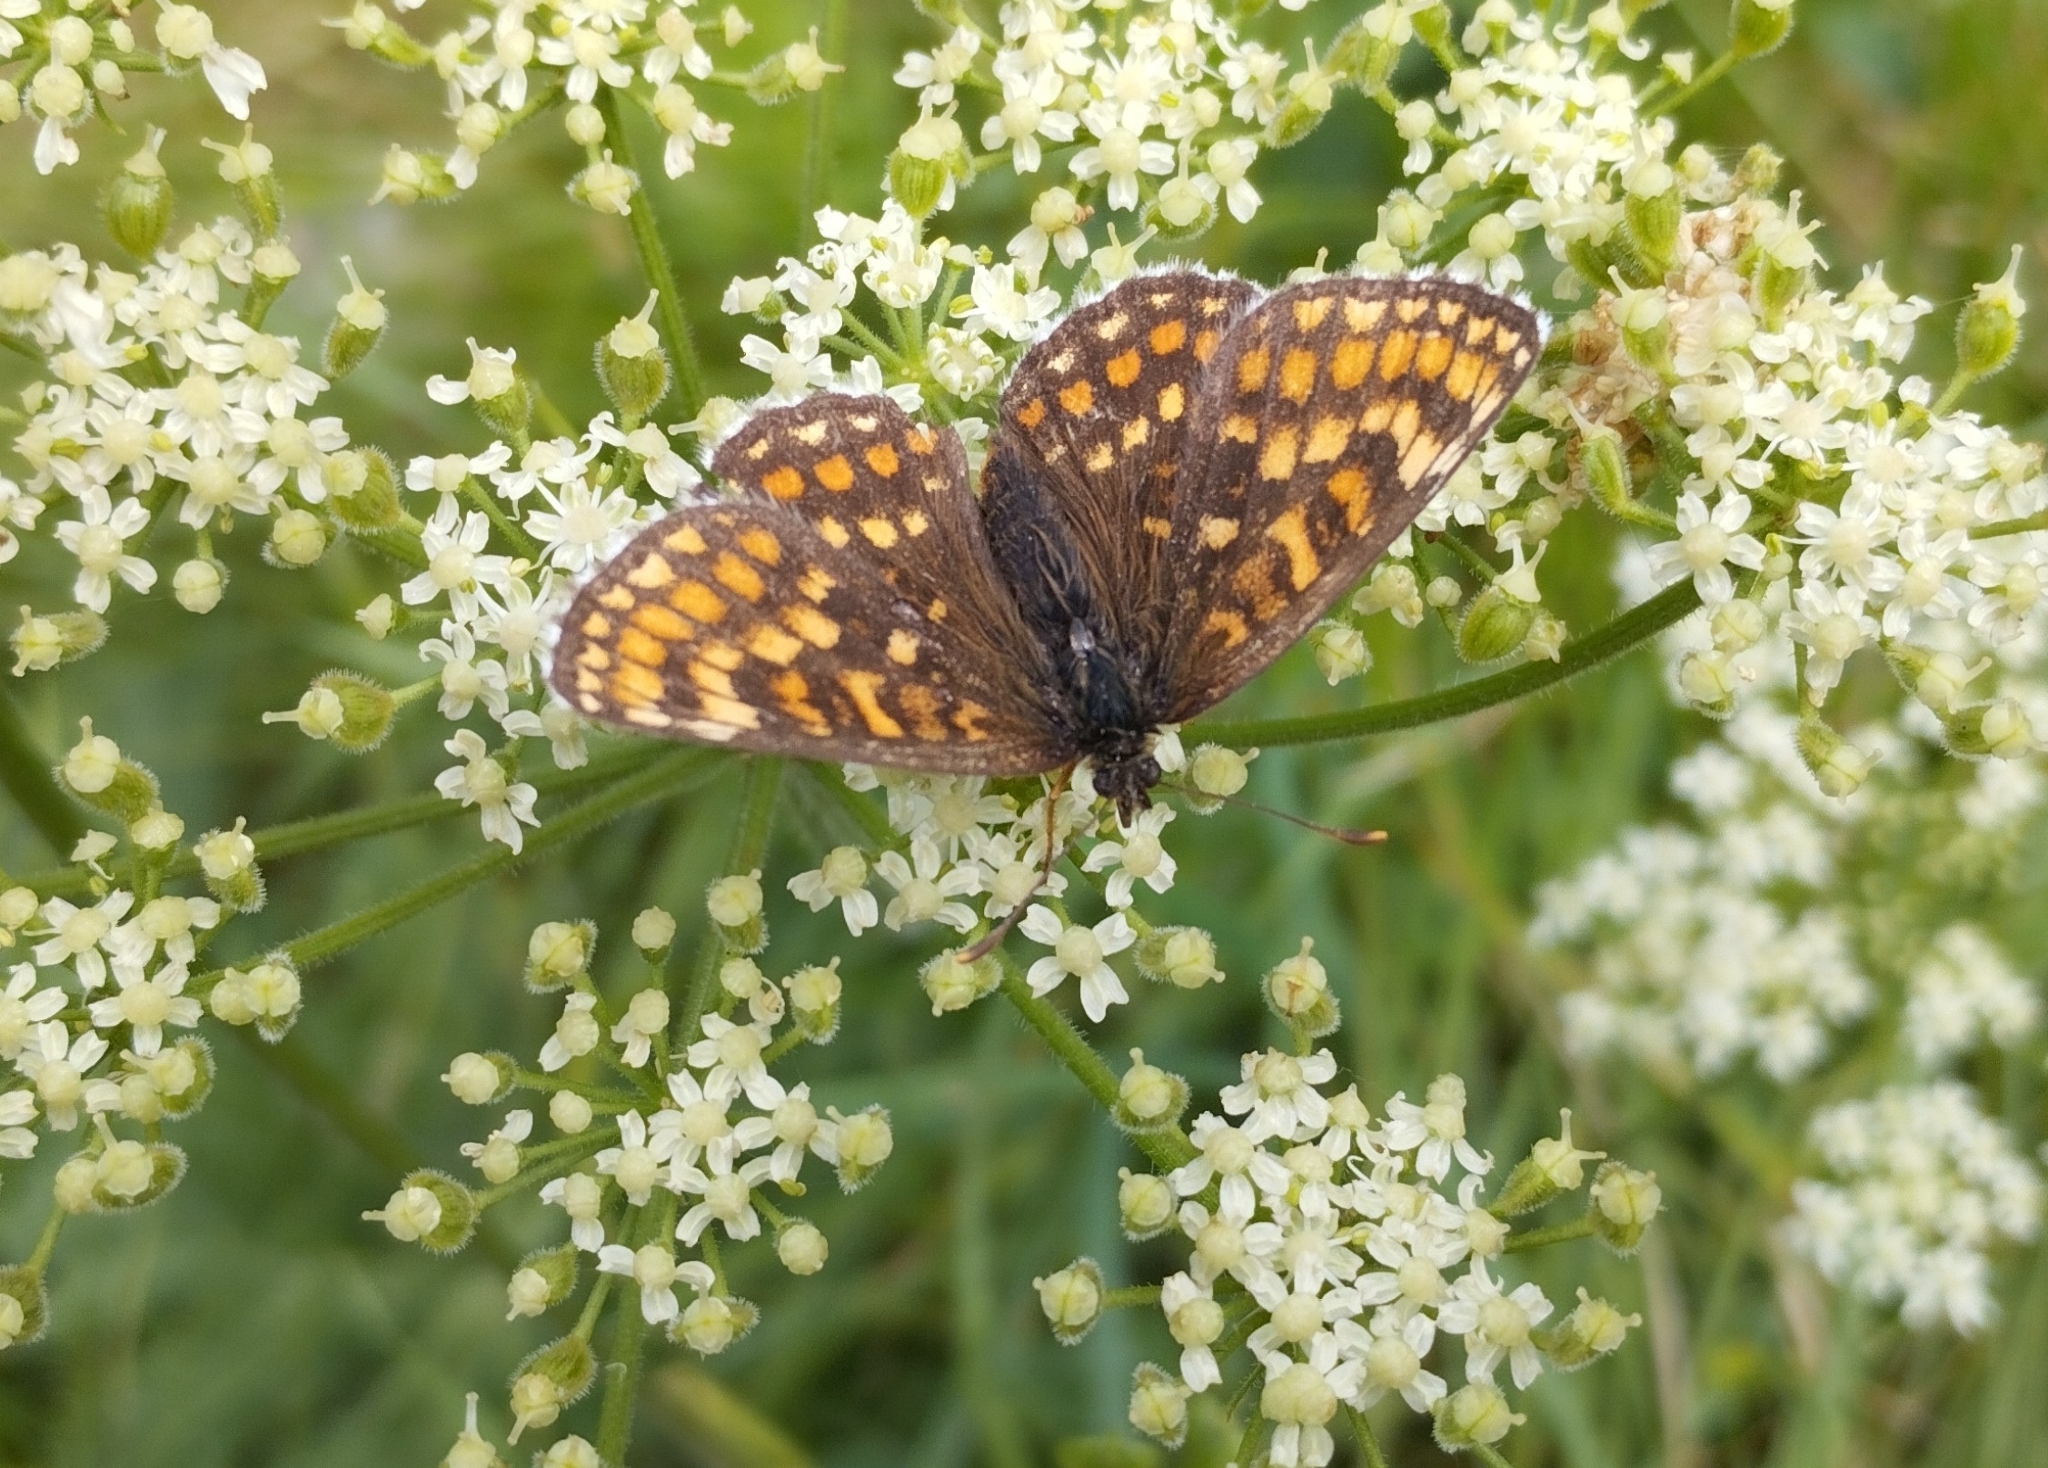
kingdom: Animalia
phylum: Arthropoda
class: Insecta
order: Lepidoptera
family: Nymphalidae
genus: Melitaea
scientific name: Melitaea athalia
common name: Heath fritillary
